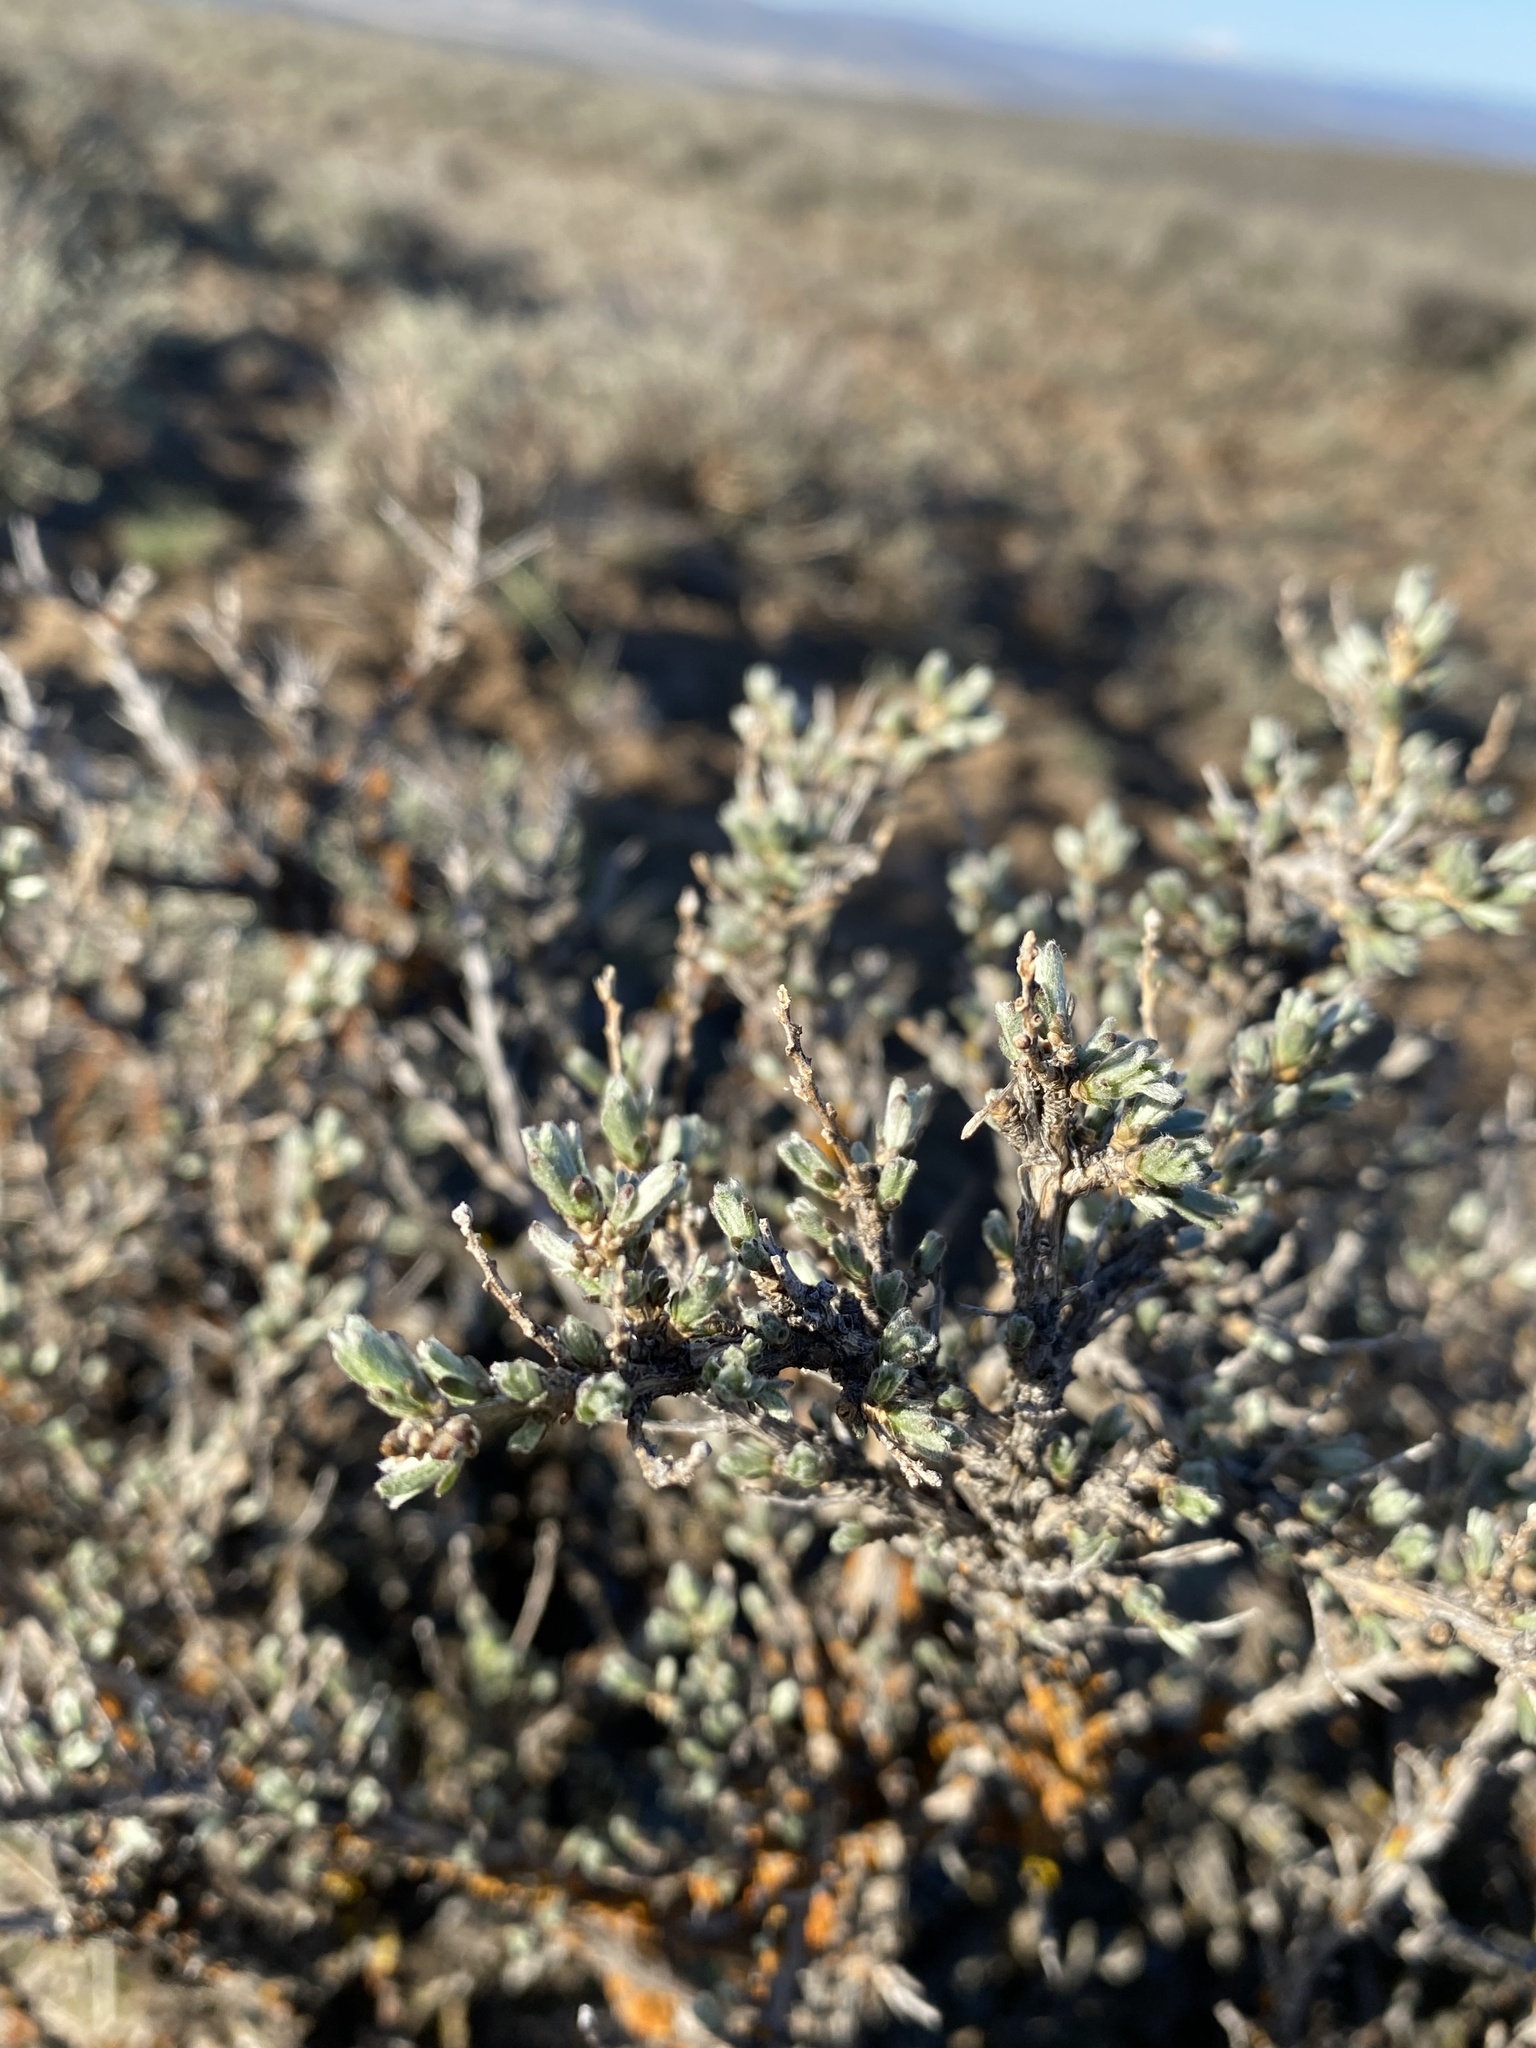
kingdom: Plantae
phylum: Tracheophyta
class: Magnoliopsida
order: Asterales
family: Asteraceae
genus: Artemisia
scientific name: Artemisia rigida
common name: Scabland sagebrush
